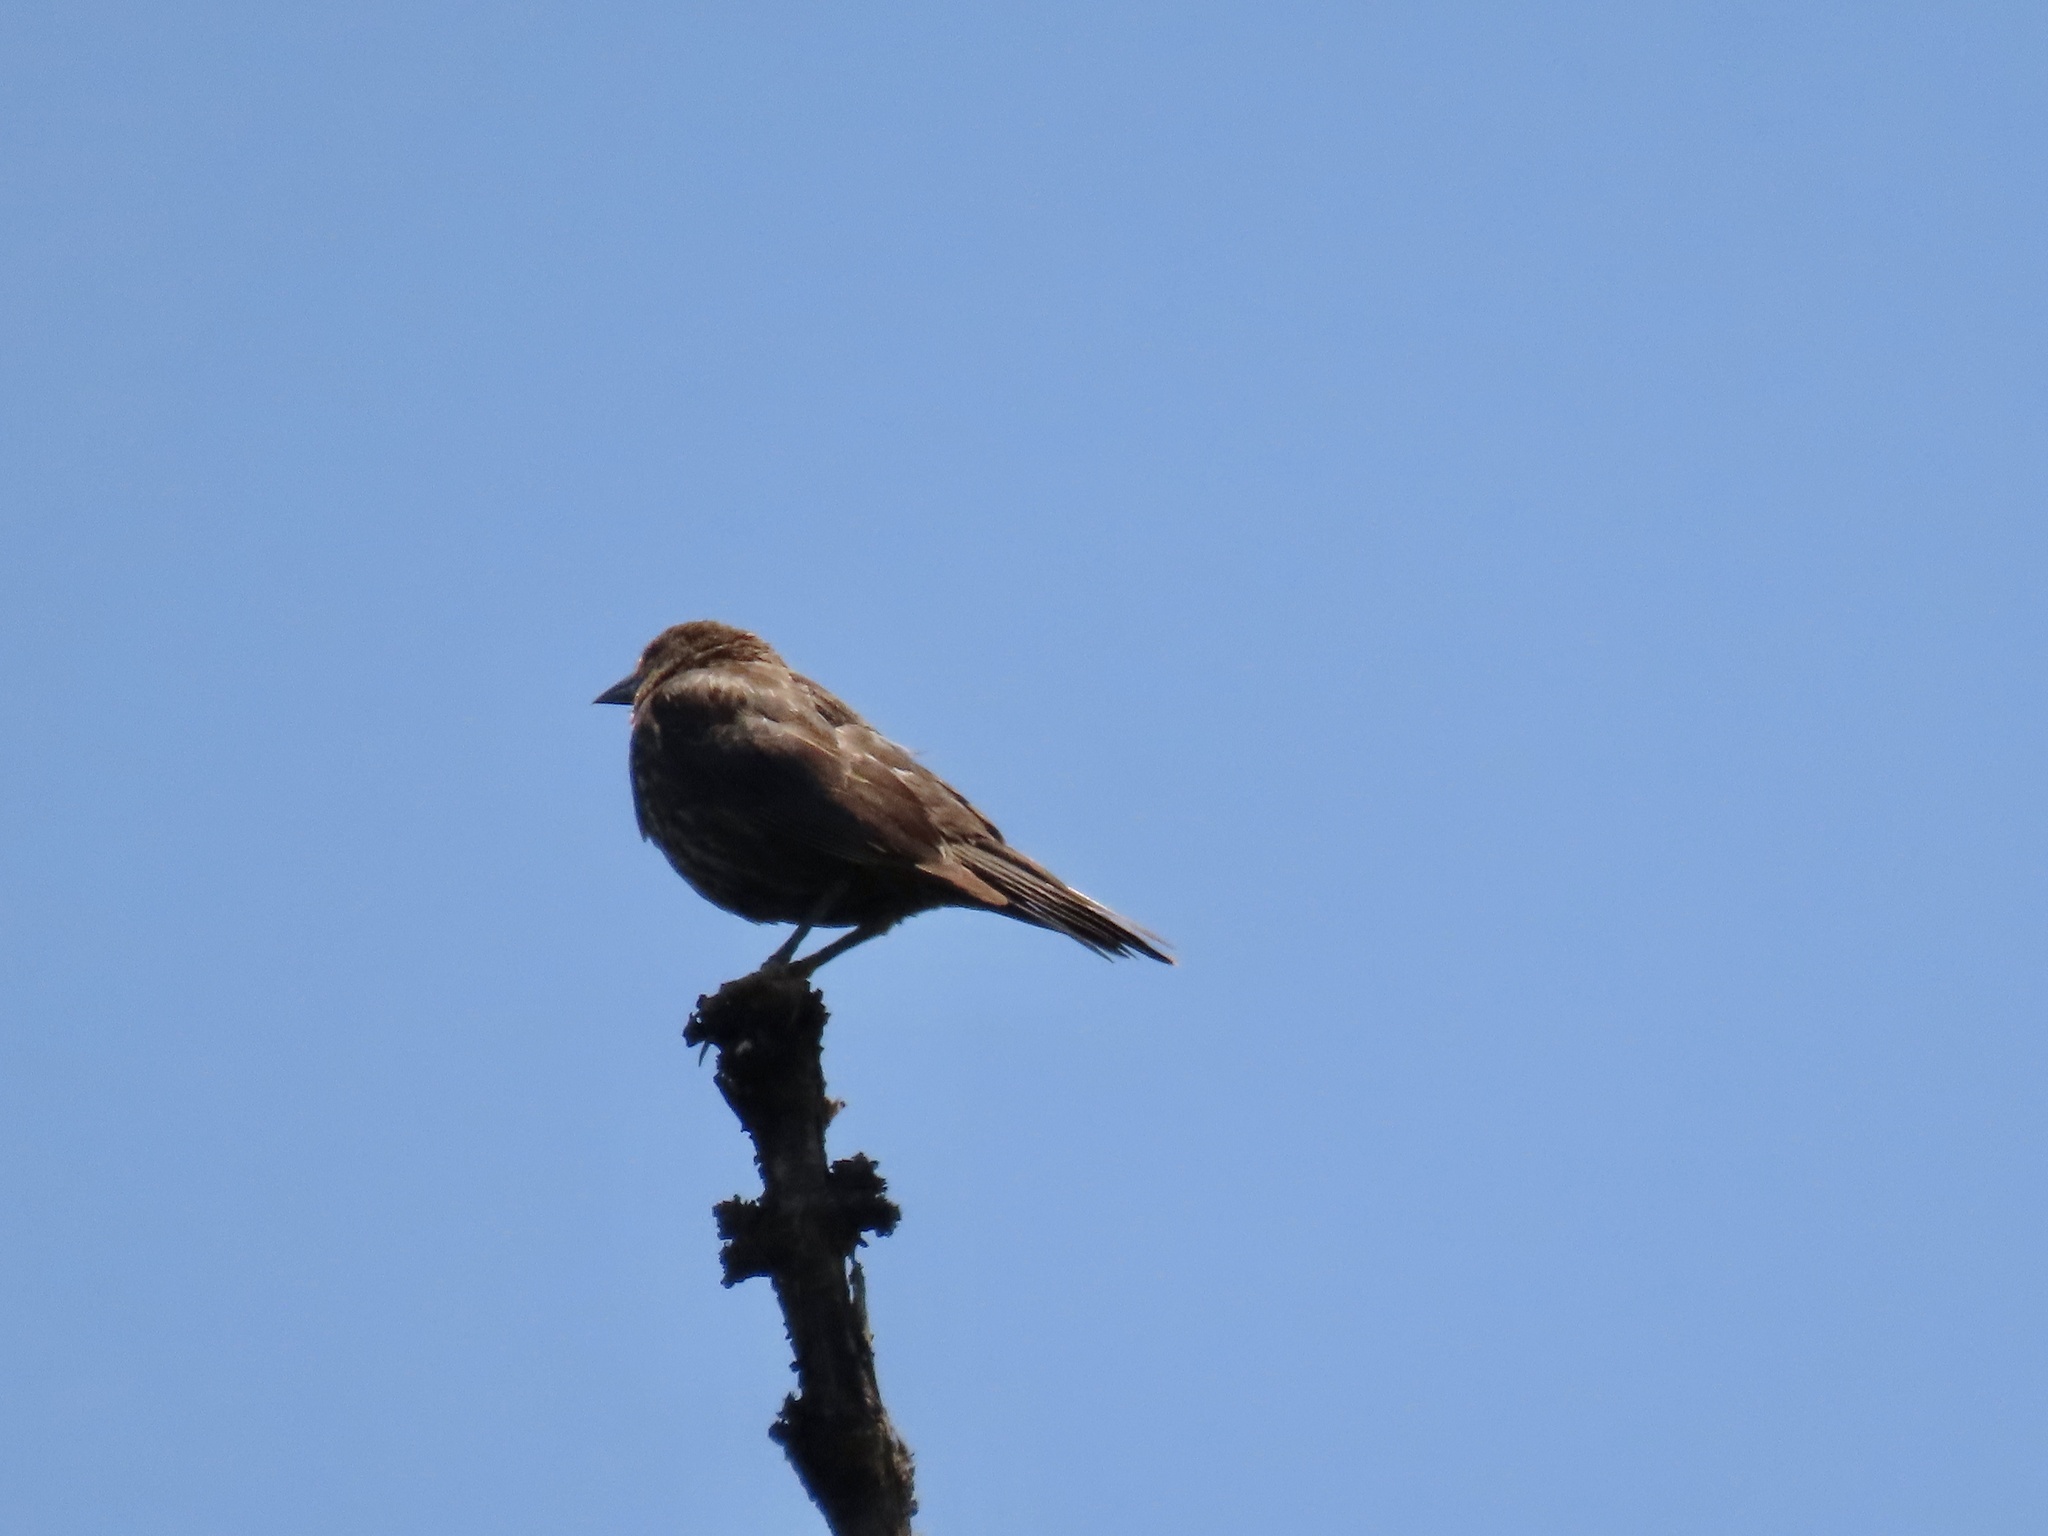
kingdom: Animalia
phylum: Chordata
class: Aves
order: Passeriformes
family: Icteridae
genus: Agelaius
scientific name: Agelaius phoeniceus
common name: Red-winged blackbird
